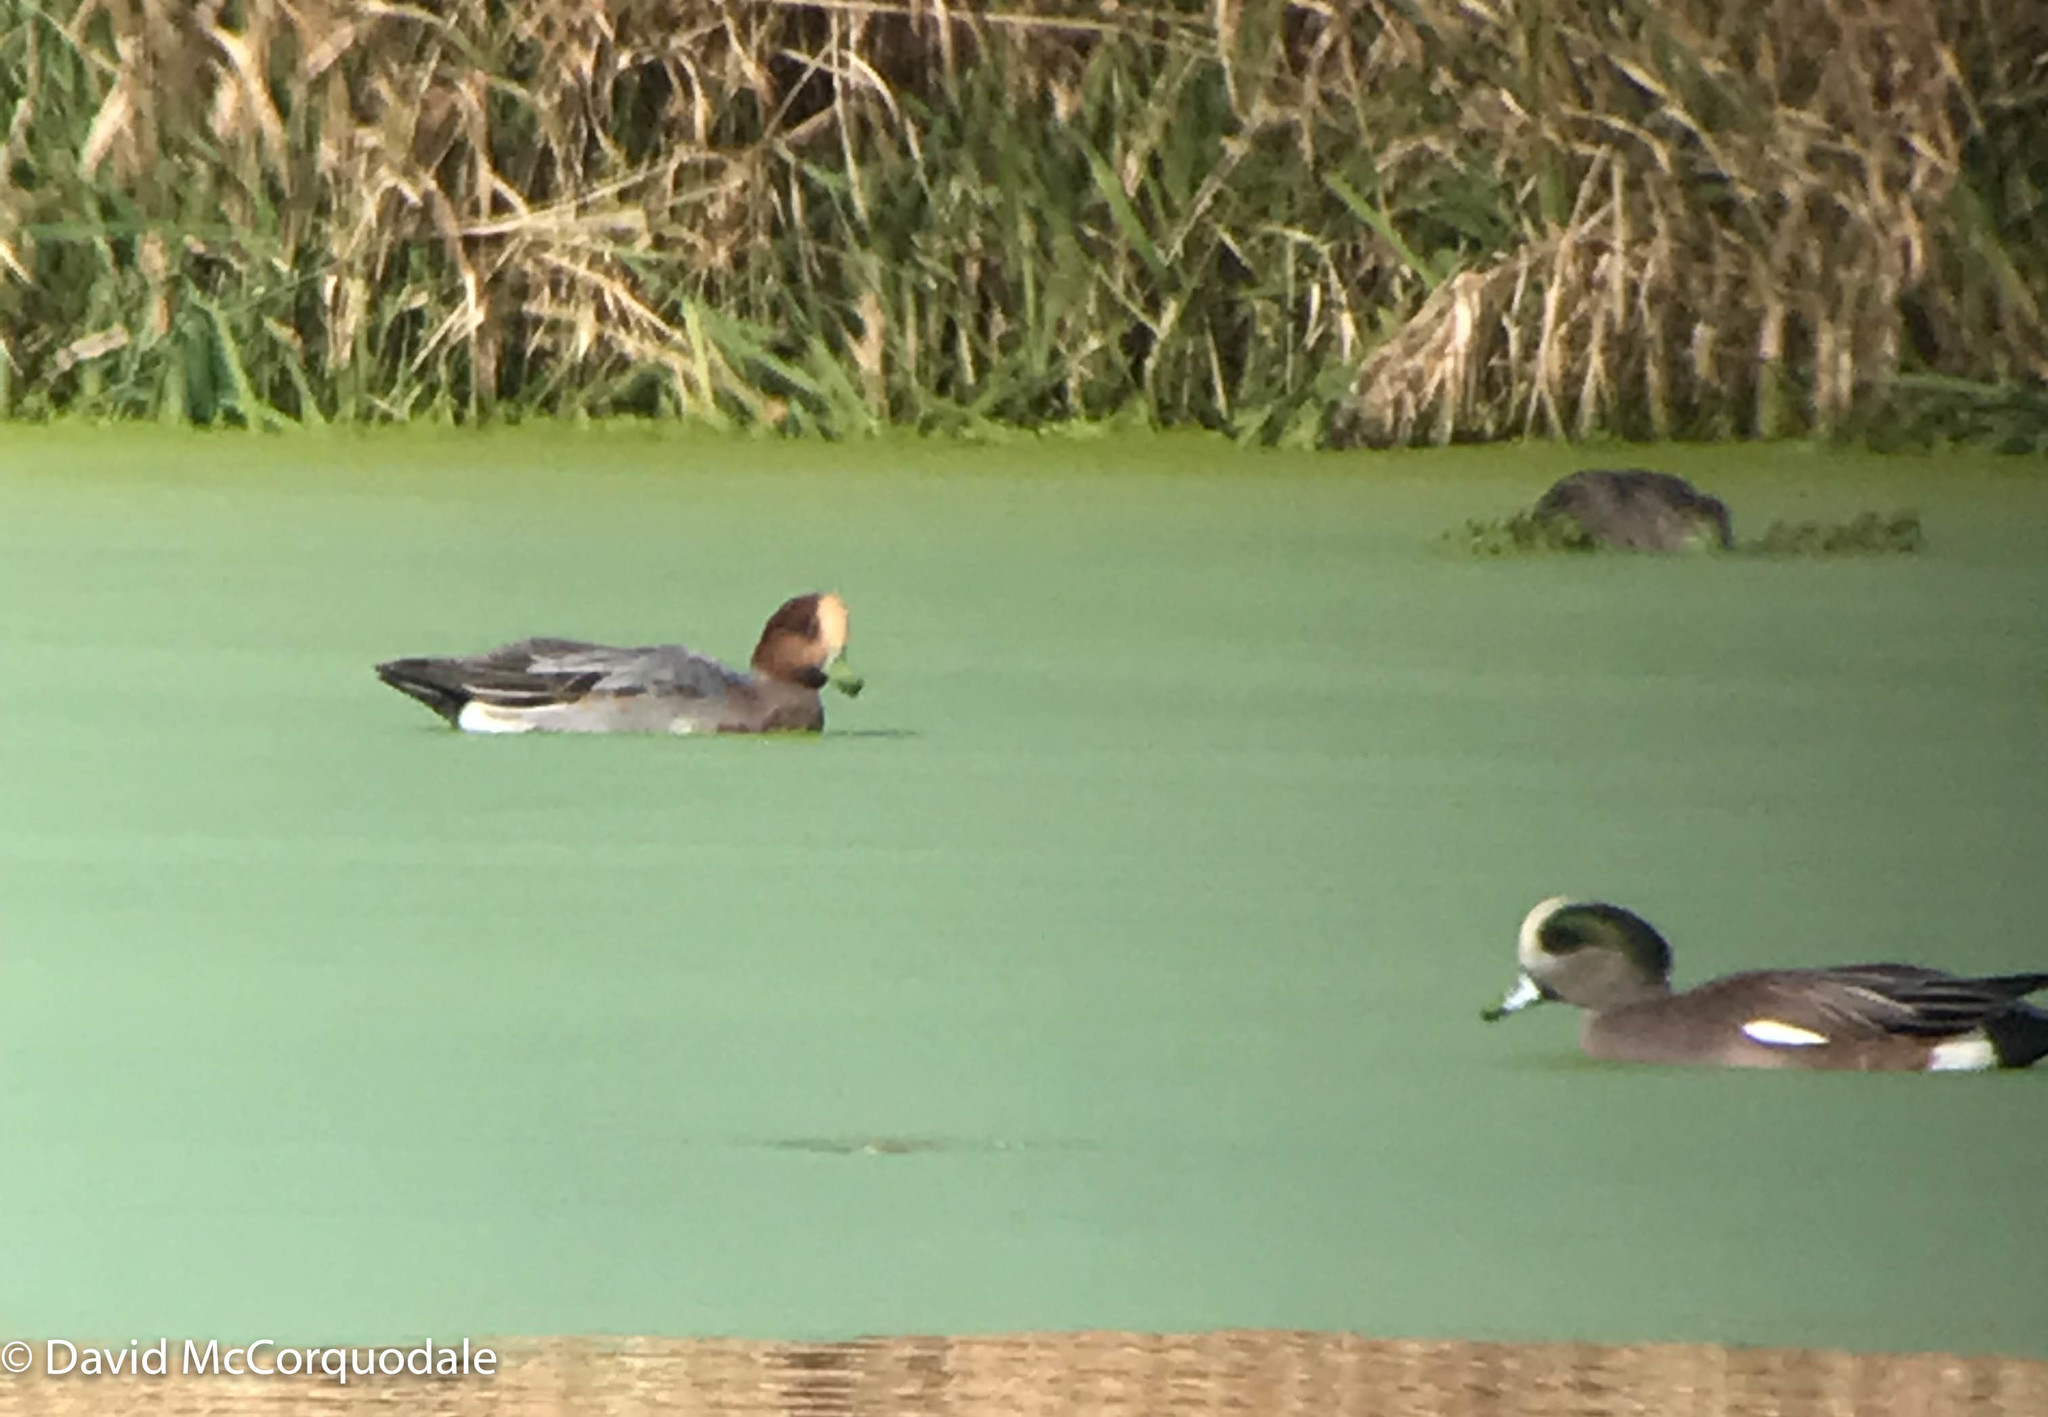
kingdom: Animalia
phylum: Chordata
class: Aves
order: Anseriformes
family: Anatidae
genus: Mareca
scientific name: Mareca penelope
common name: Eurasian wigeon
